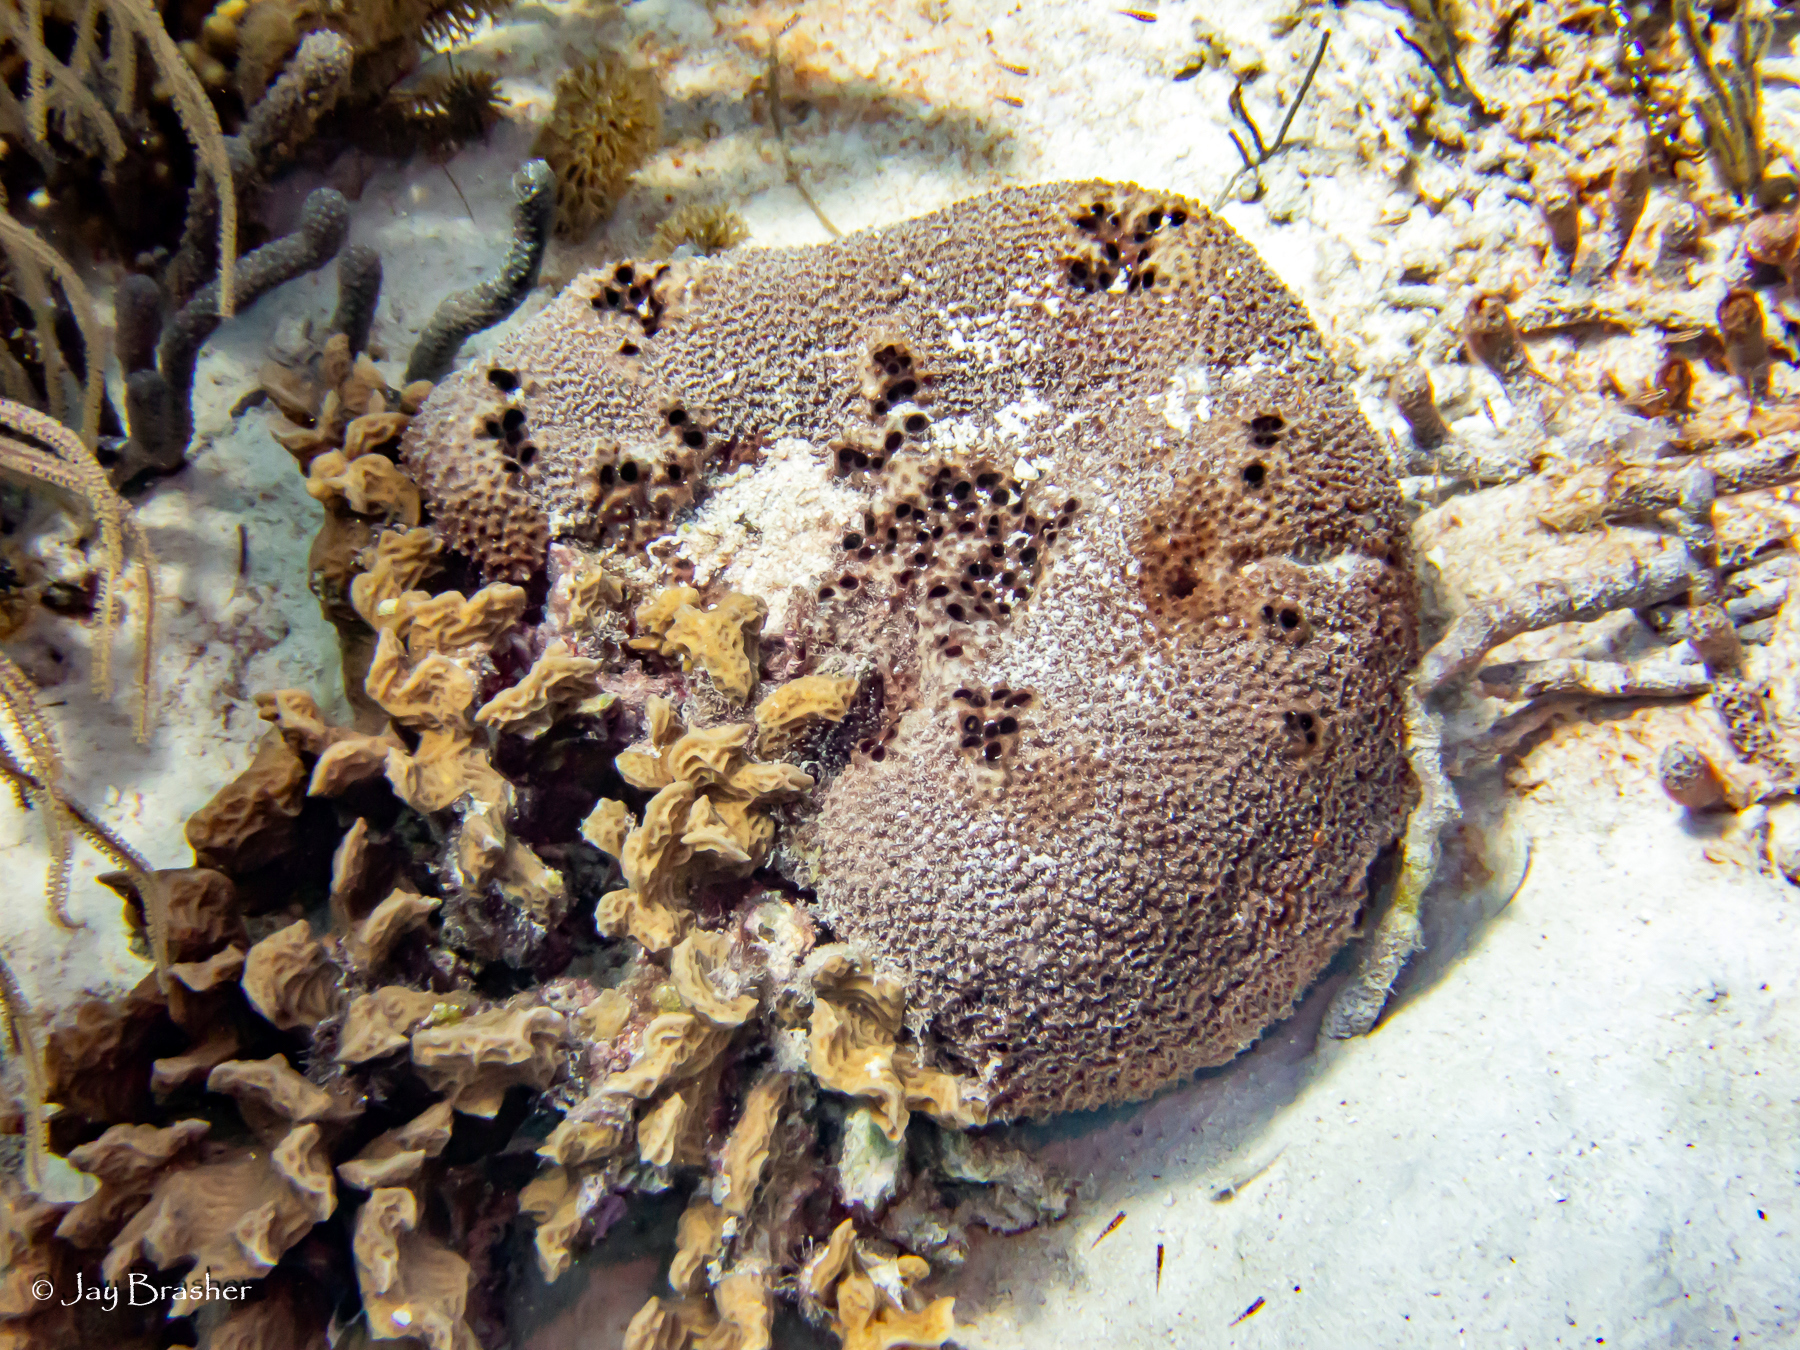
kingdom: Animalia
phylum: Porifera
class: Demospongiae
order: Dictyoceratida
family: Irciniidae
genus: Ircinia
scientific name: Ircinia felix
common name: Stinker sponge
